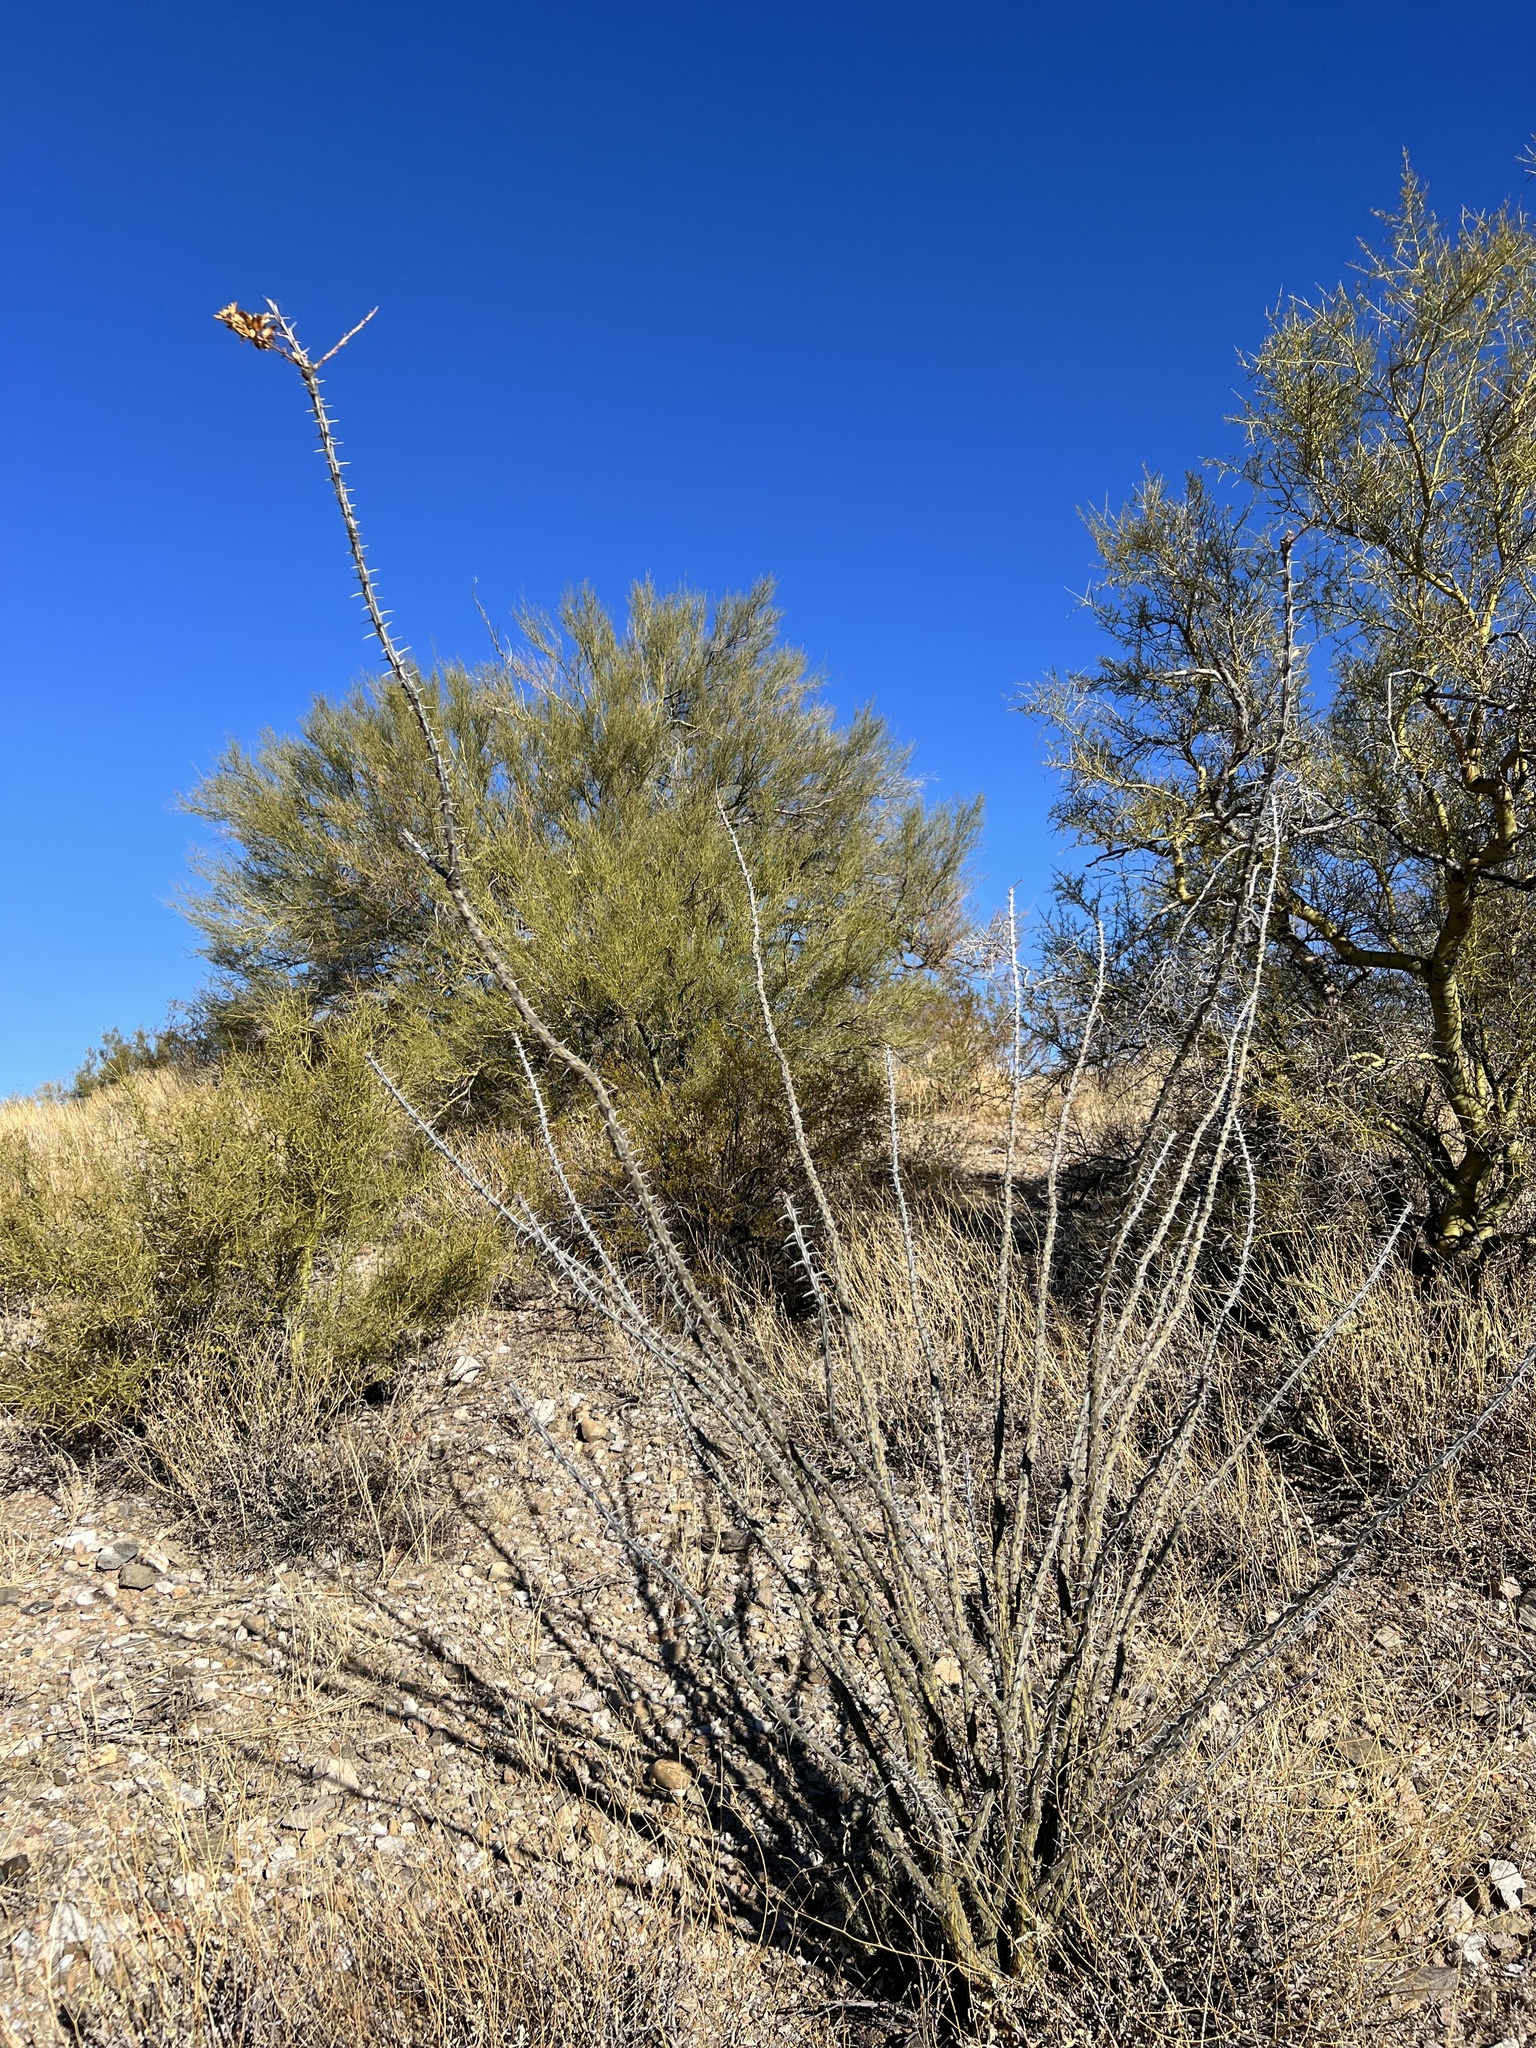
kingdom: Plantae
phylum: Tracheophyta
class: Magnoliopsida
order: Ericales
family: Fouquieriaceae
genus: Fouquieria
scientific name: Fouquieria splendens
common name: Vine-cactus
